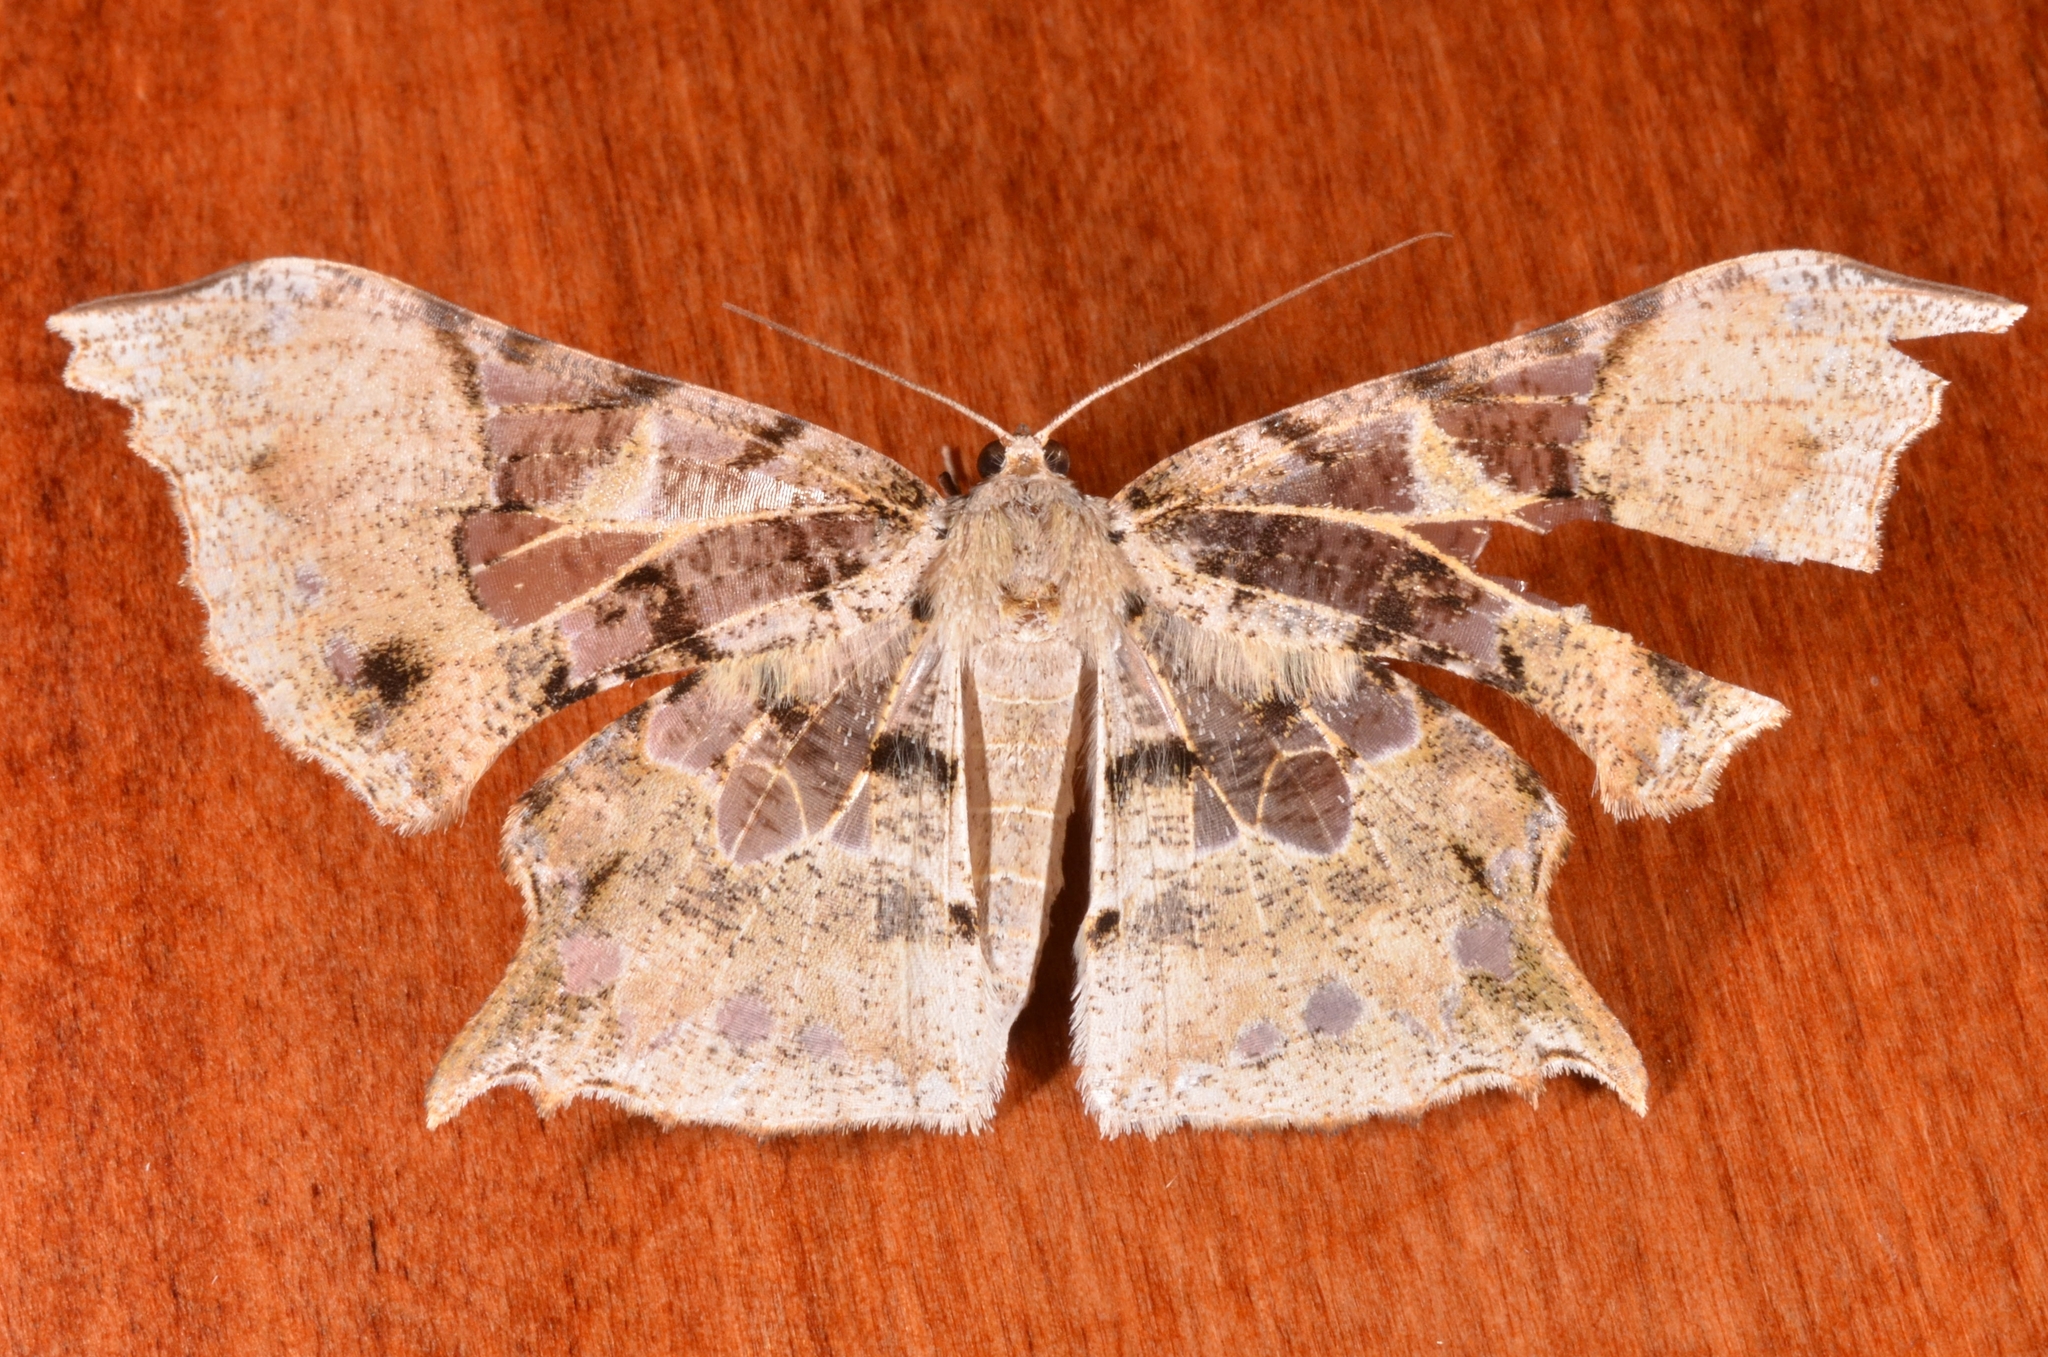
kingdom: Animalia
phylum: Arthropoda
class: Insecta
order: Lepidoptera
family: Geometridae
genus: Krananda
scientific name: Krananda semihyalina
